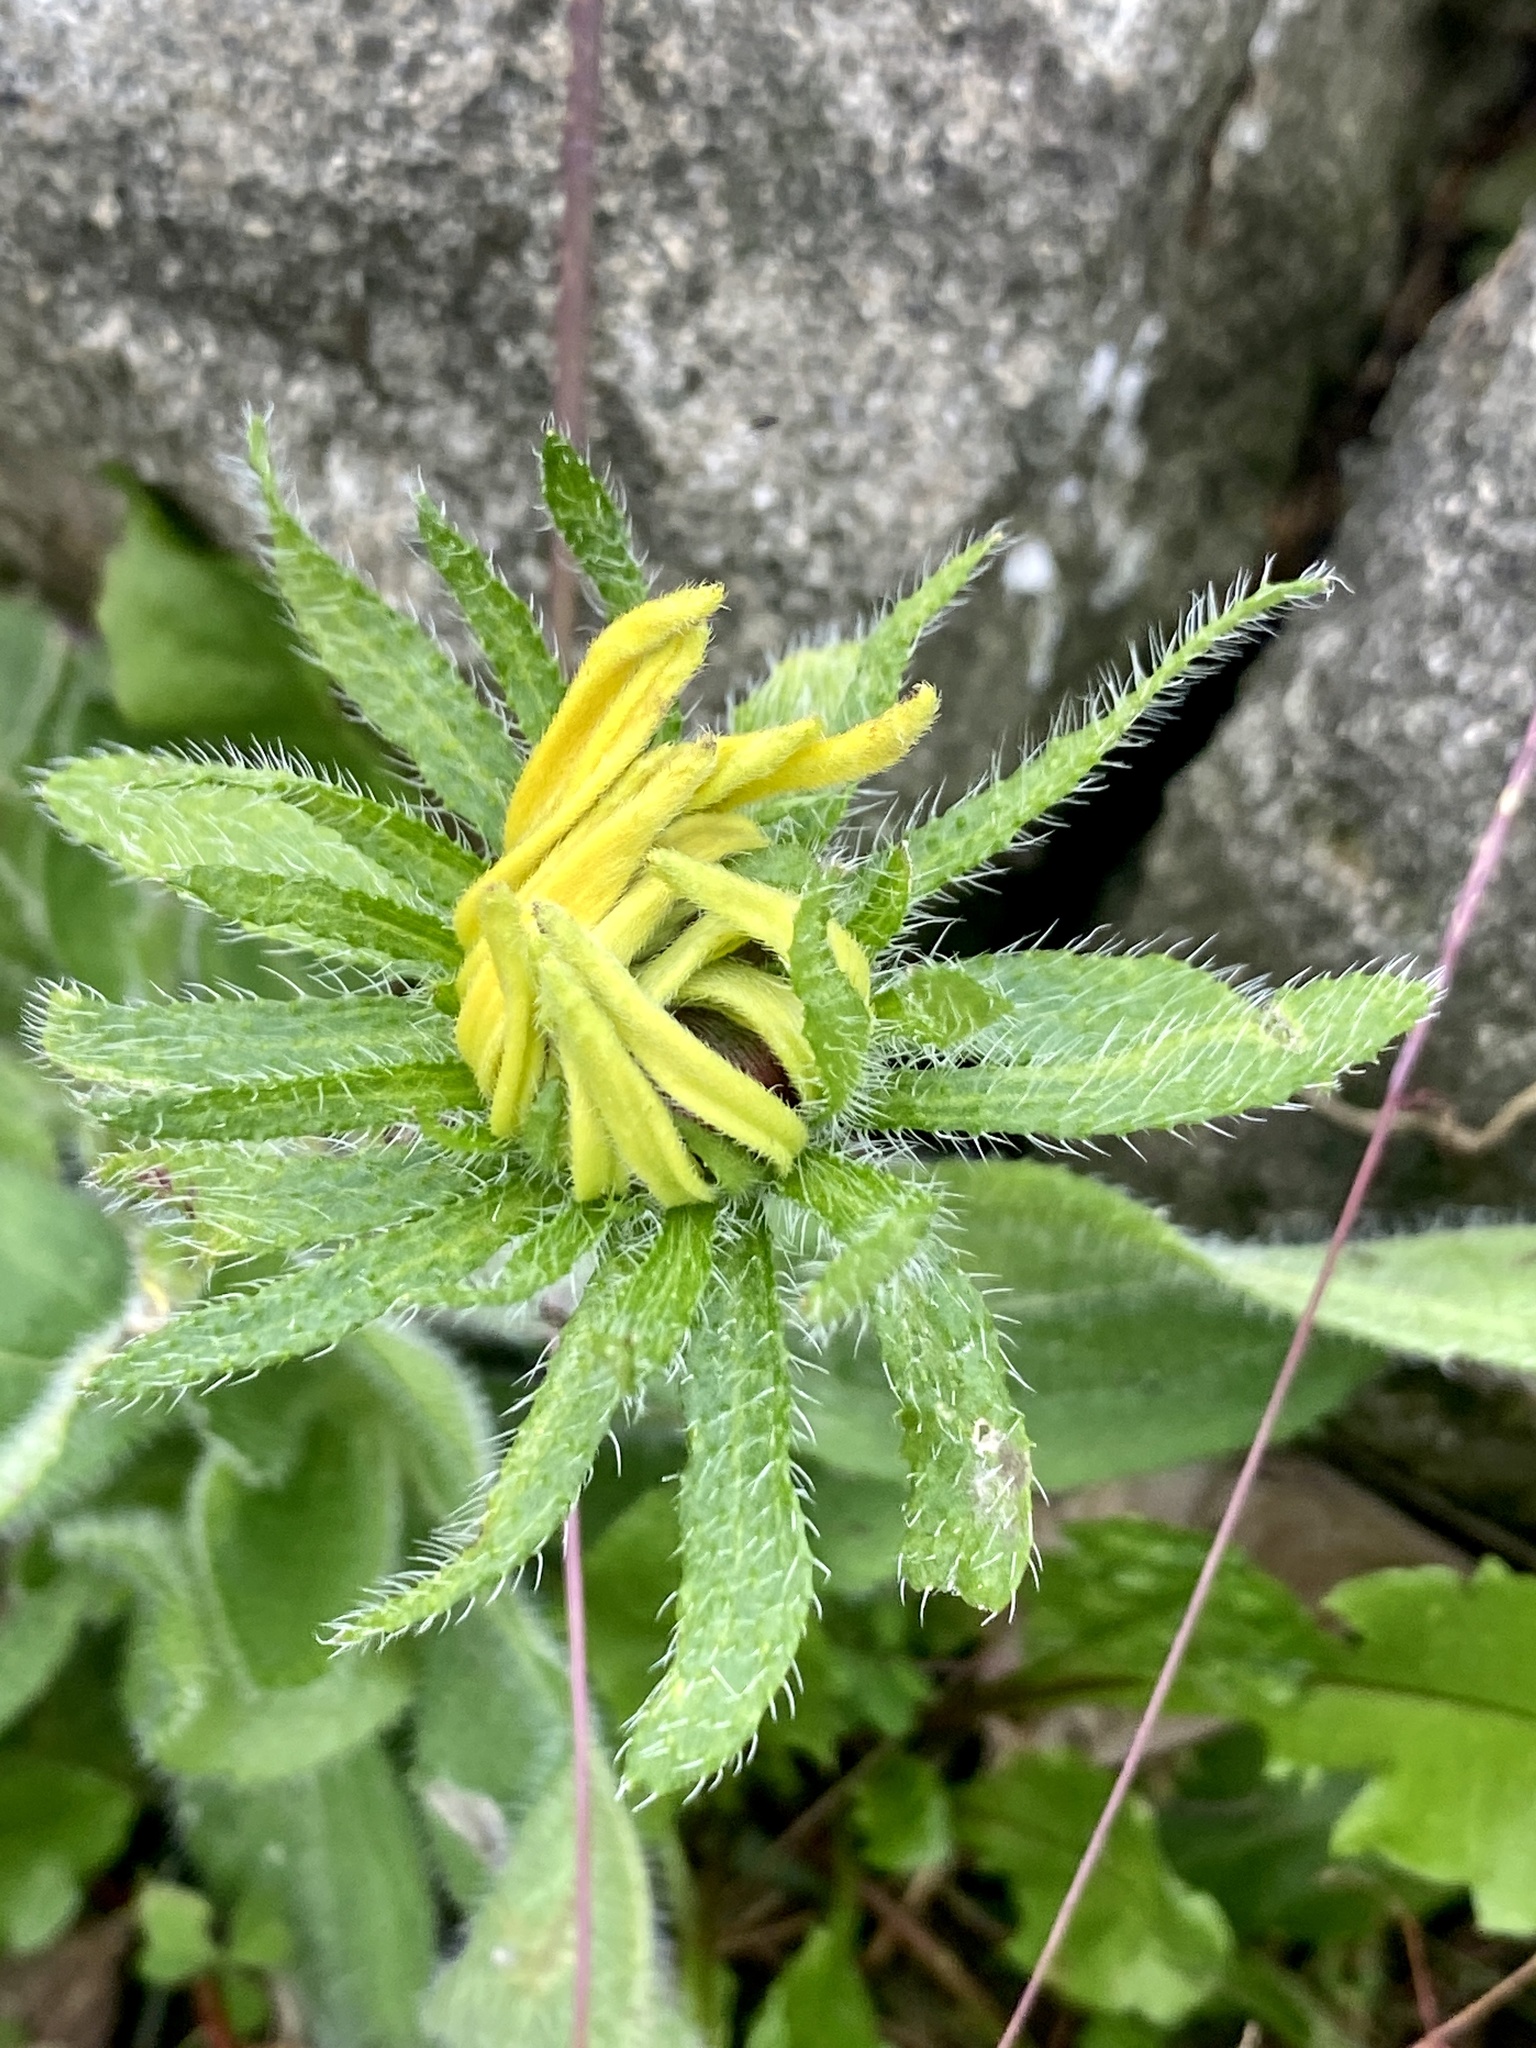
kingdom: Plantae
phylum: Tracheophyta
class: Magnoliopsida
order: Asterales
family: Asteraceae
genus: Rudbeckia
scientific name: Rudbeckia hirta
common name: Black-eyed-susan
